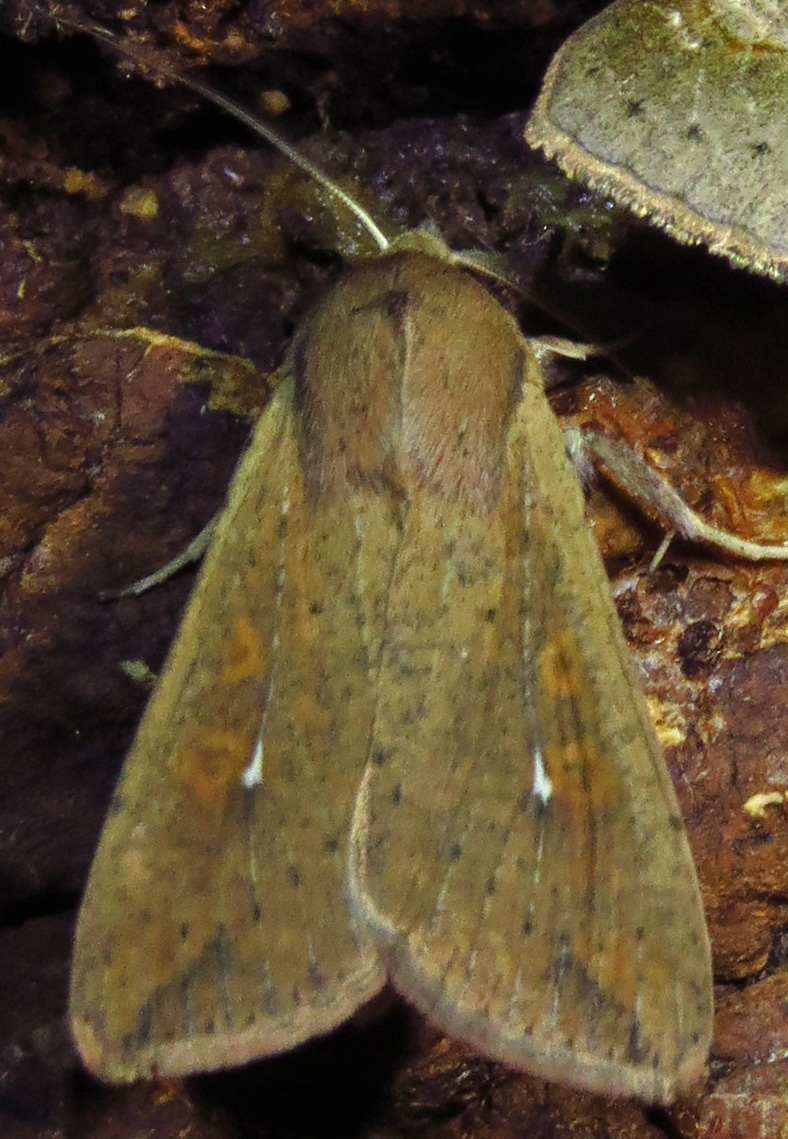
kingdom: Animalia
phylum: Arthropoda
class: Insecta
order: Lepidoptera
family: Noctuidae
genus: Mythimna
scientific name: Mythimna unipuncta
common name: White-speck
